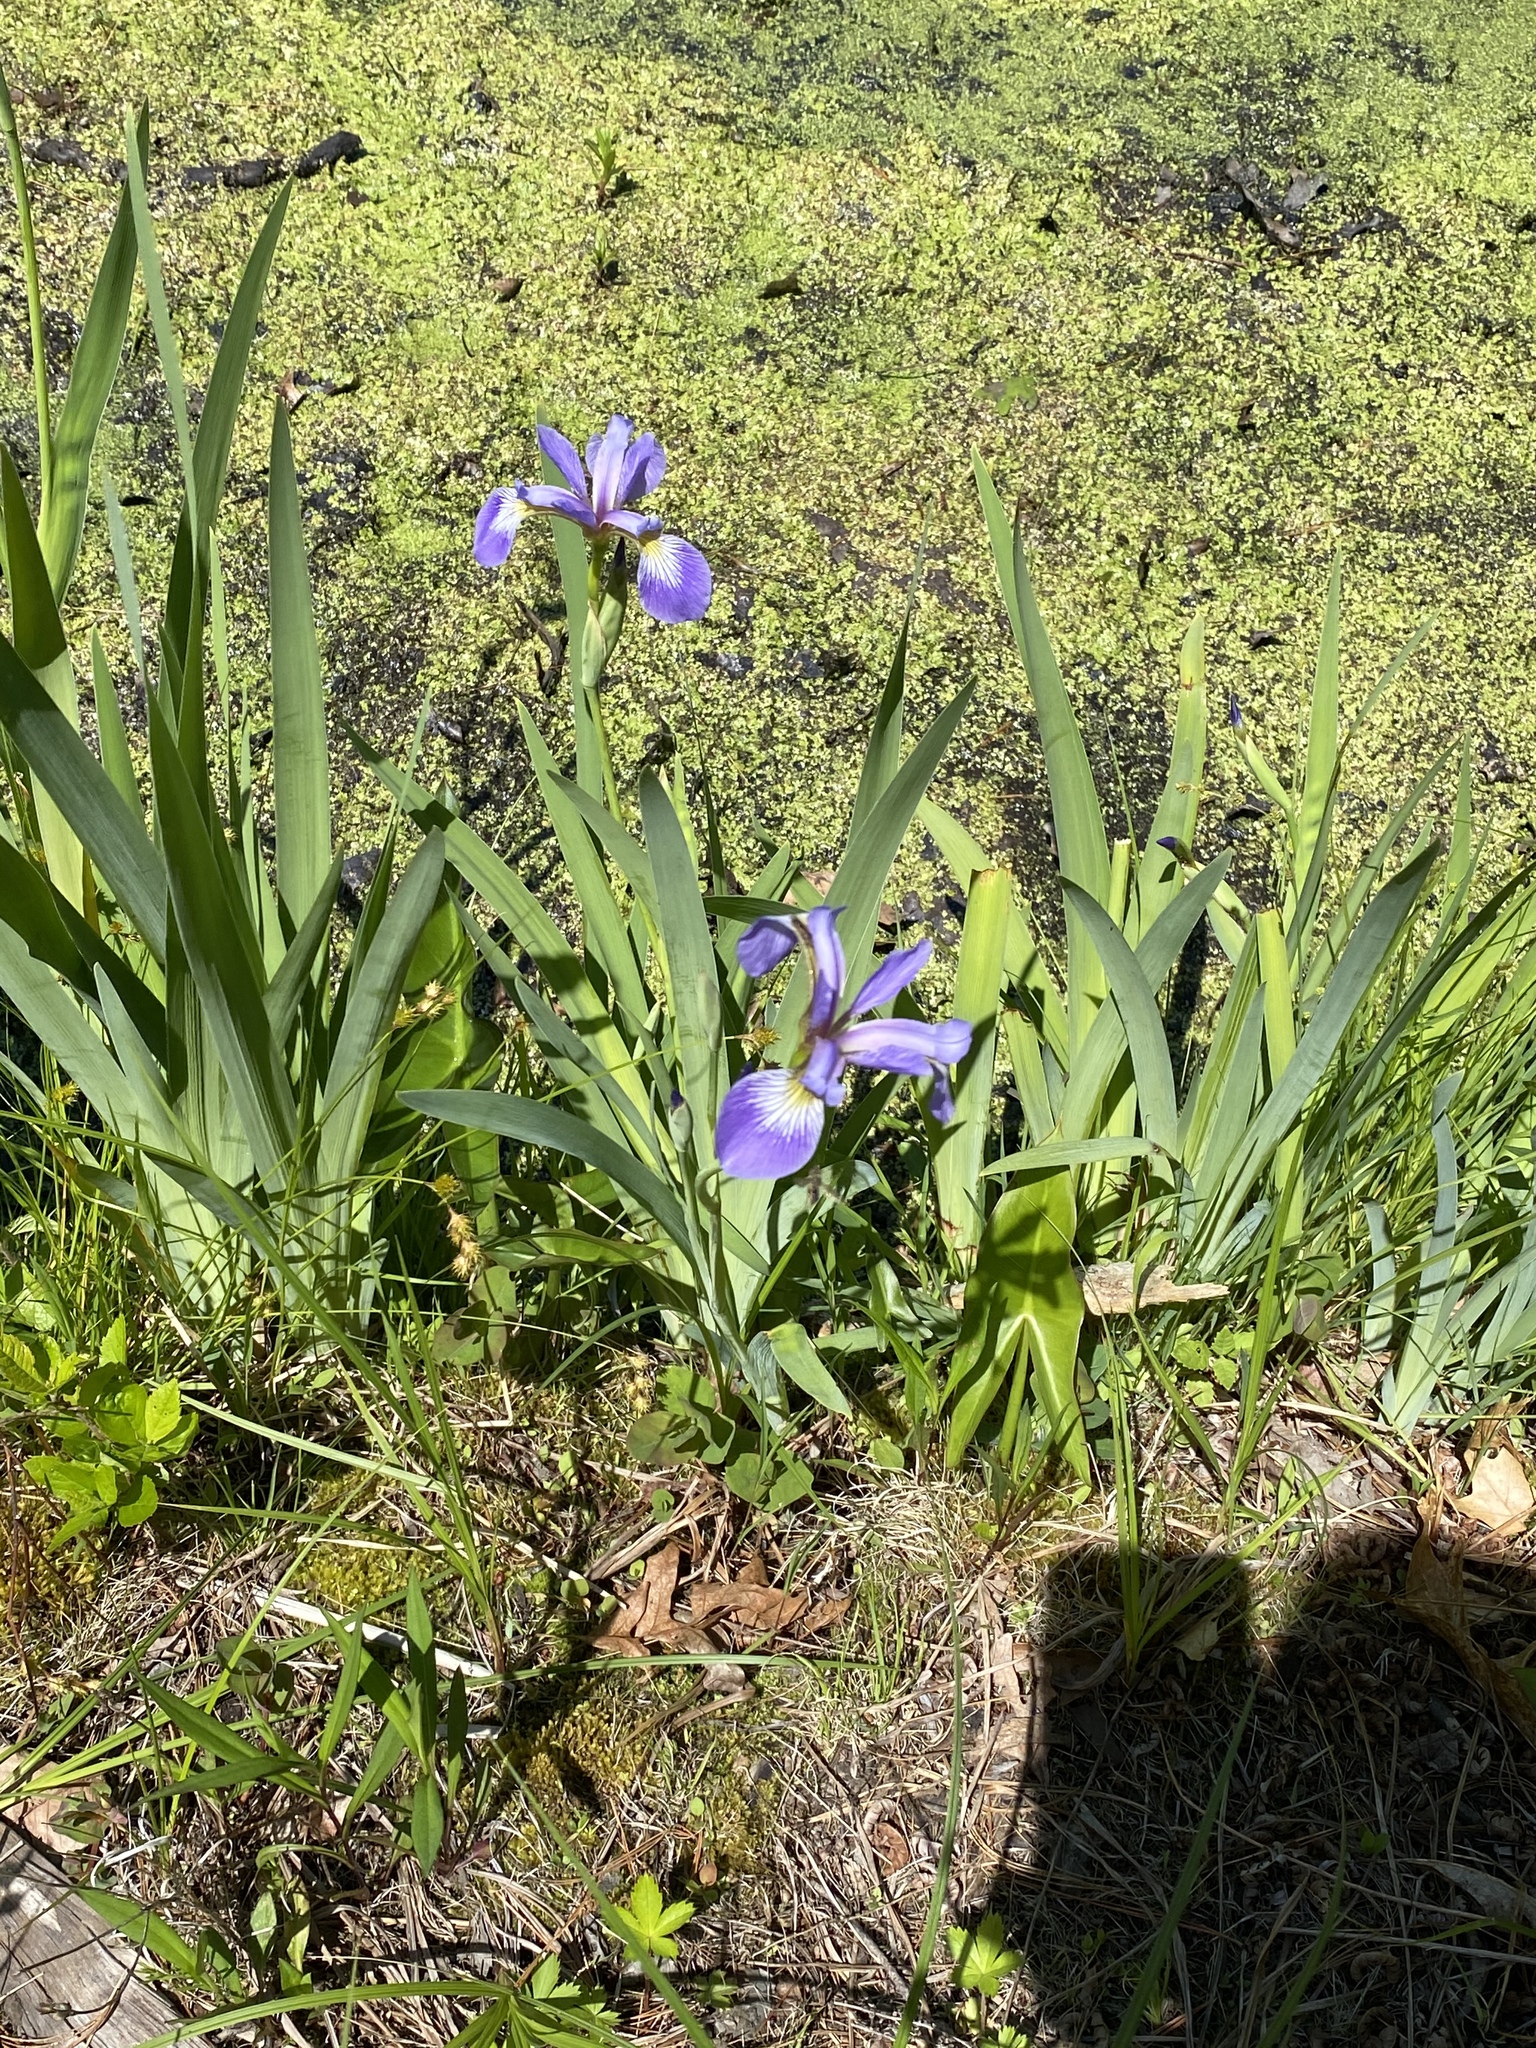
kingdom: Plantae
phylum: Tracheophyta
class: Liliopsida
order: Asparagales
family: Iridaceae
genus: Iris
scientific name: Iris versicolor
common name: Purple iris
